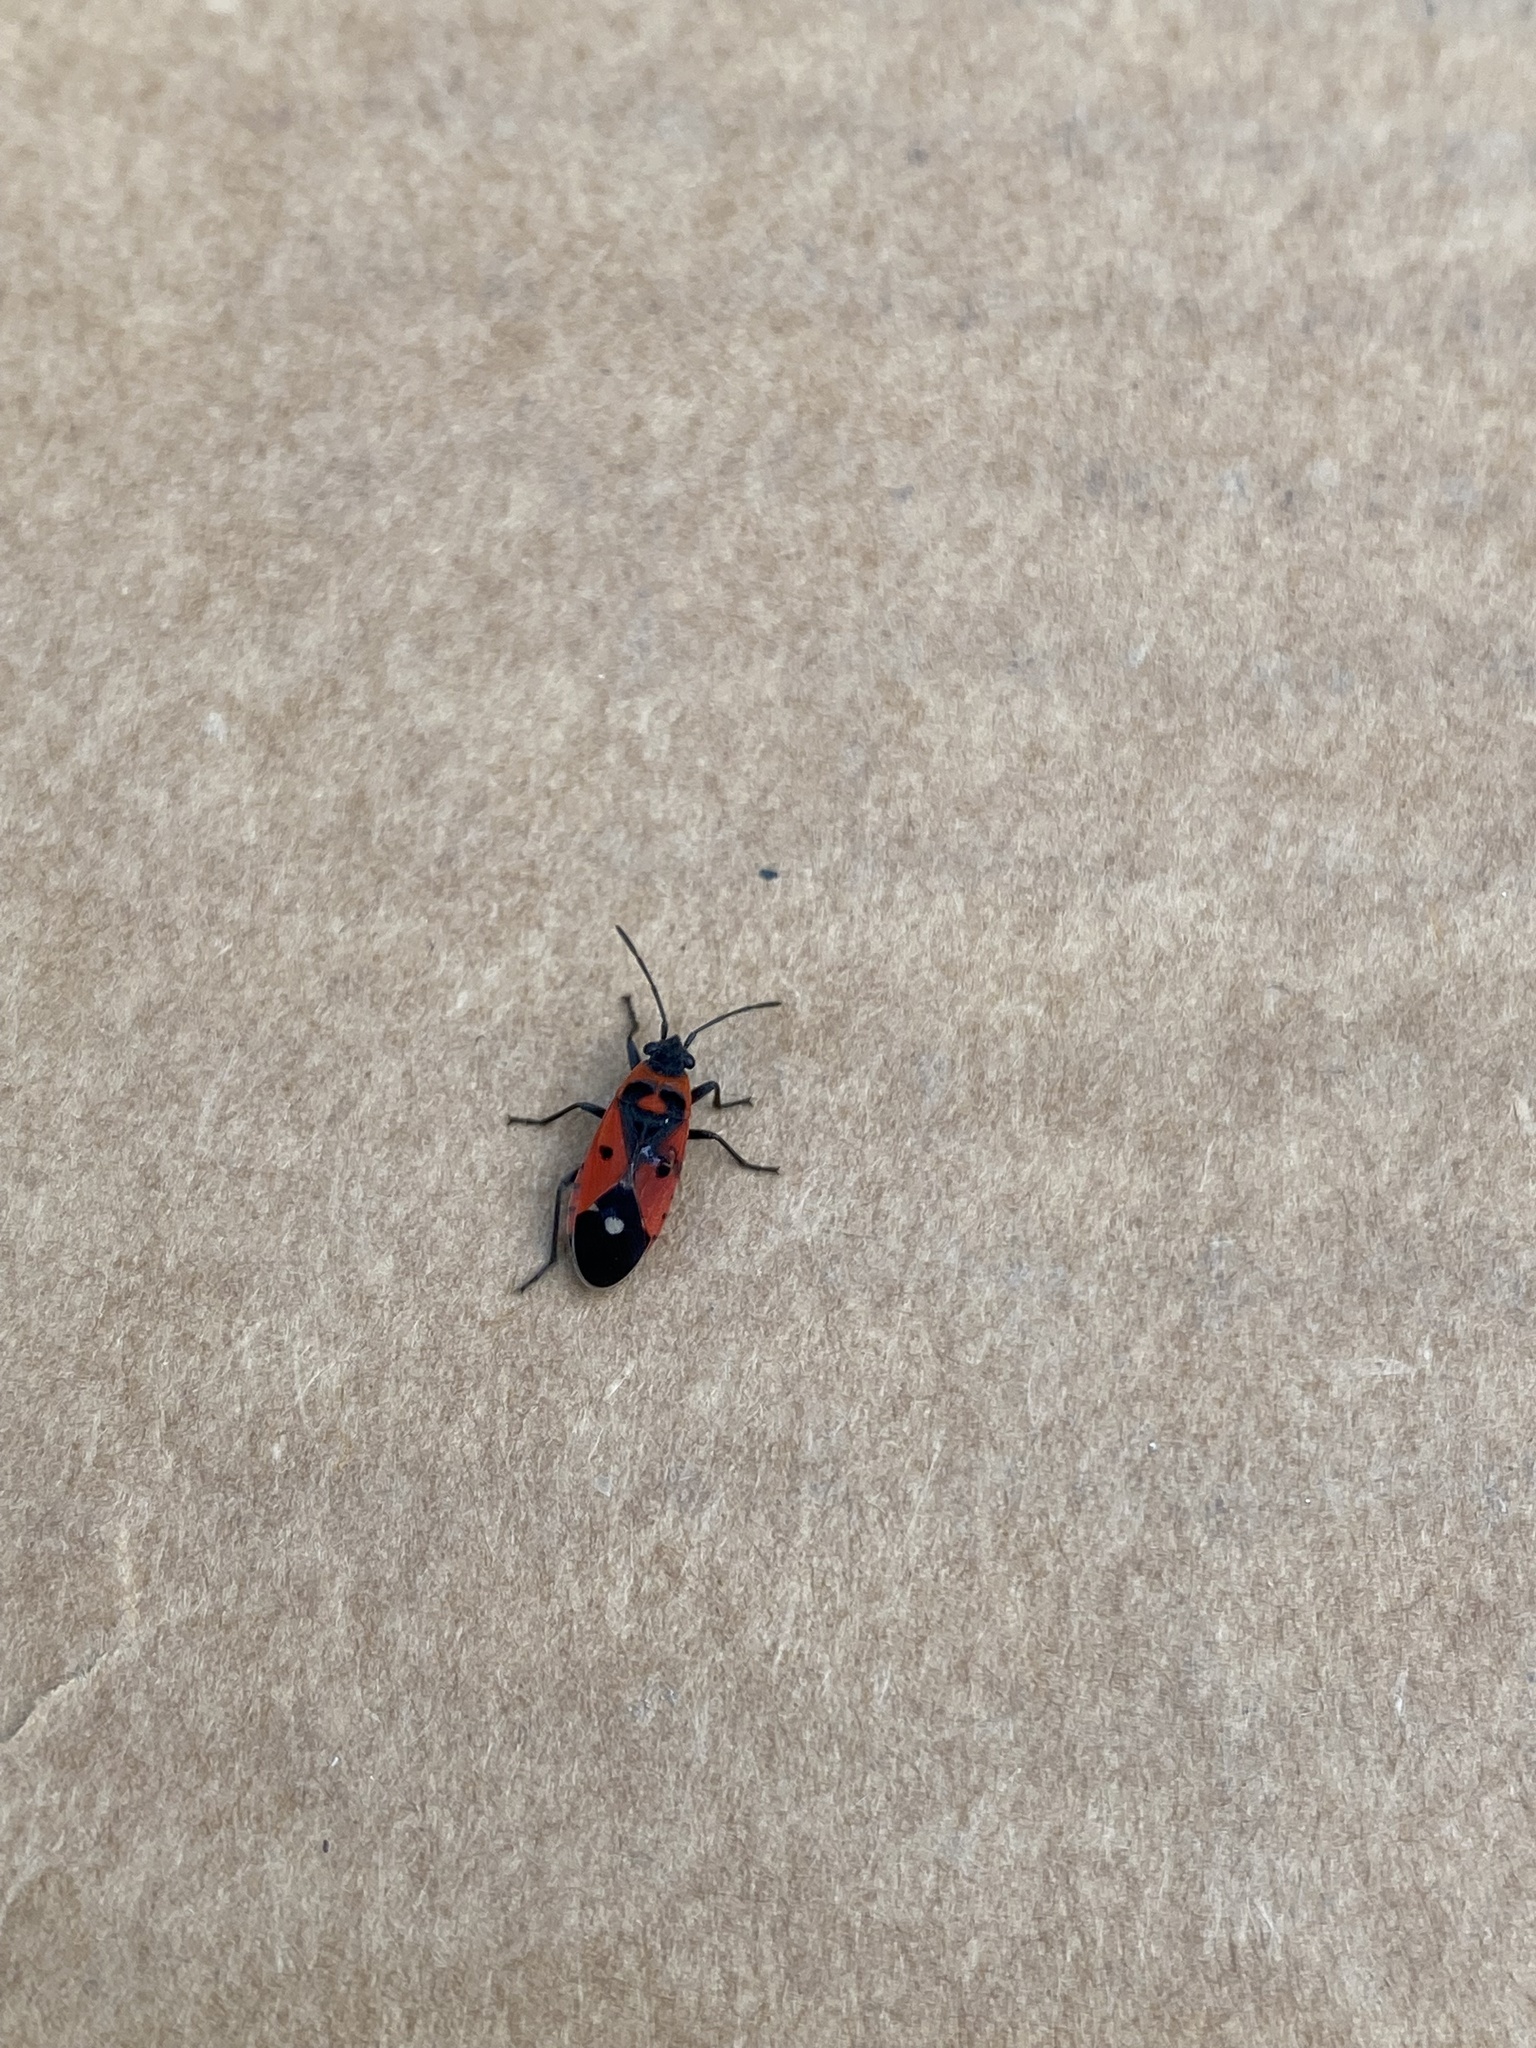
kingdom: Animalia
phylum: Arthropoda
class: Insecta
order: Hemiptera
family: Lygaeidae
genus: Melanocoryphus
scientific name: Melanocoryphus albomaculatus
